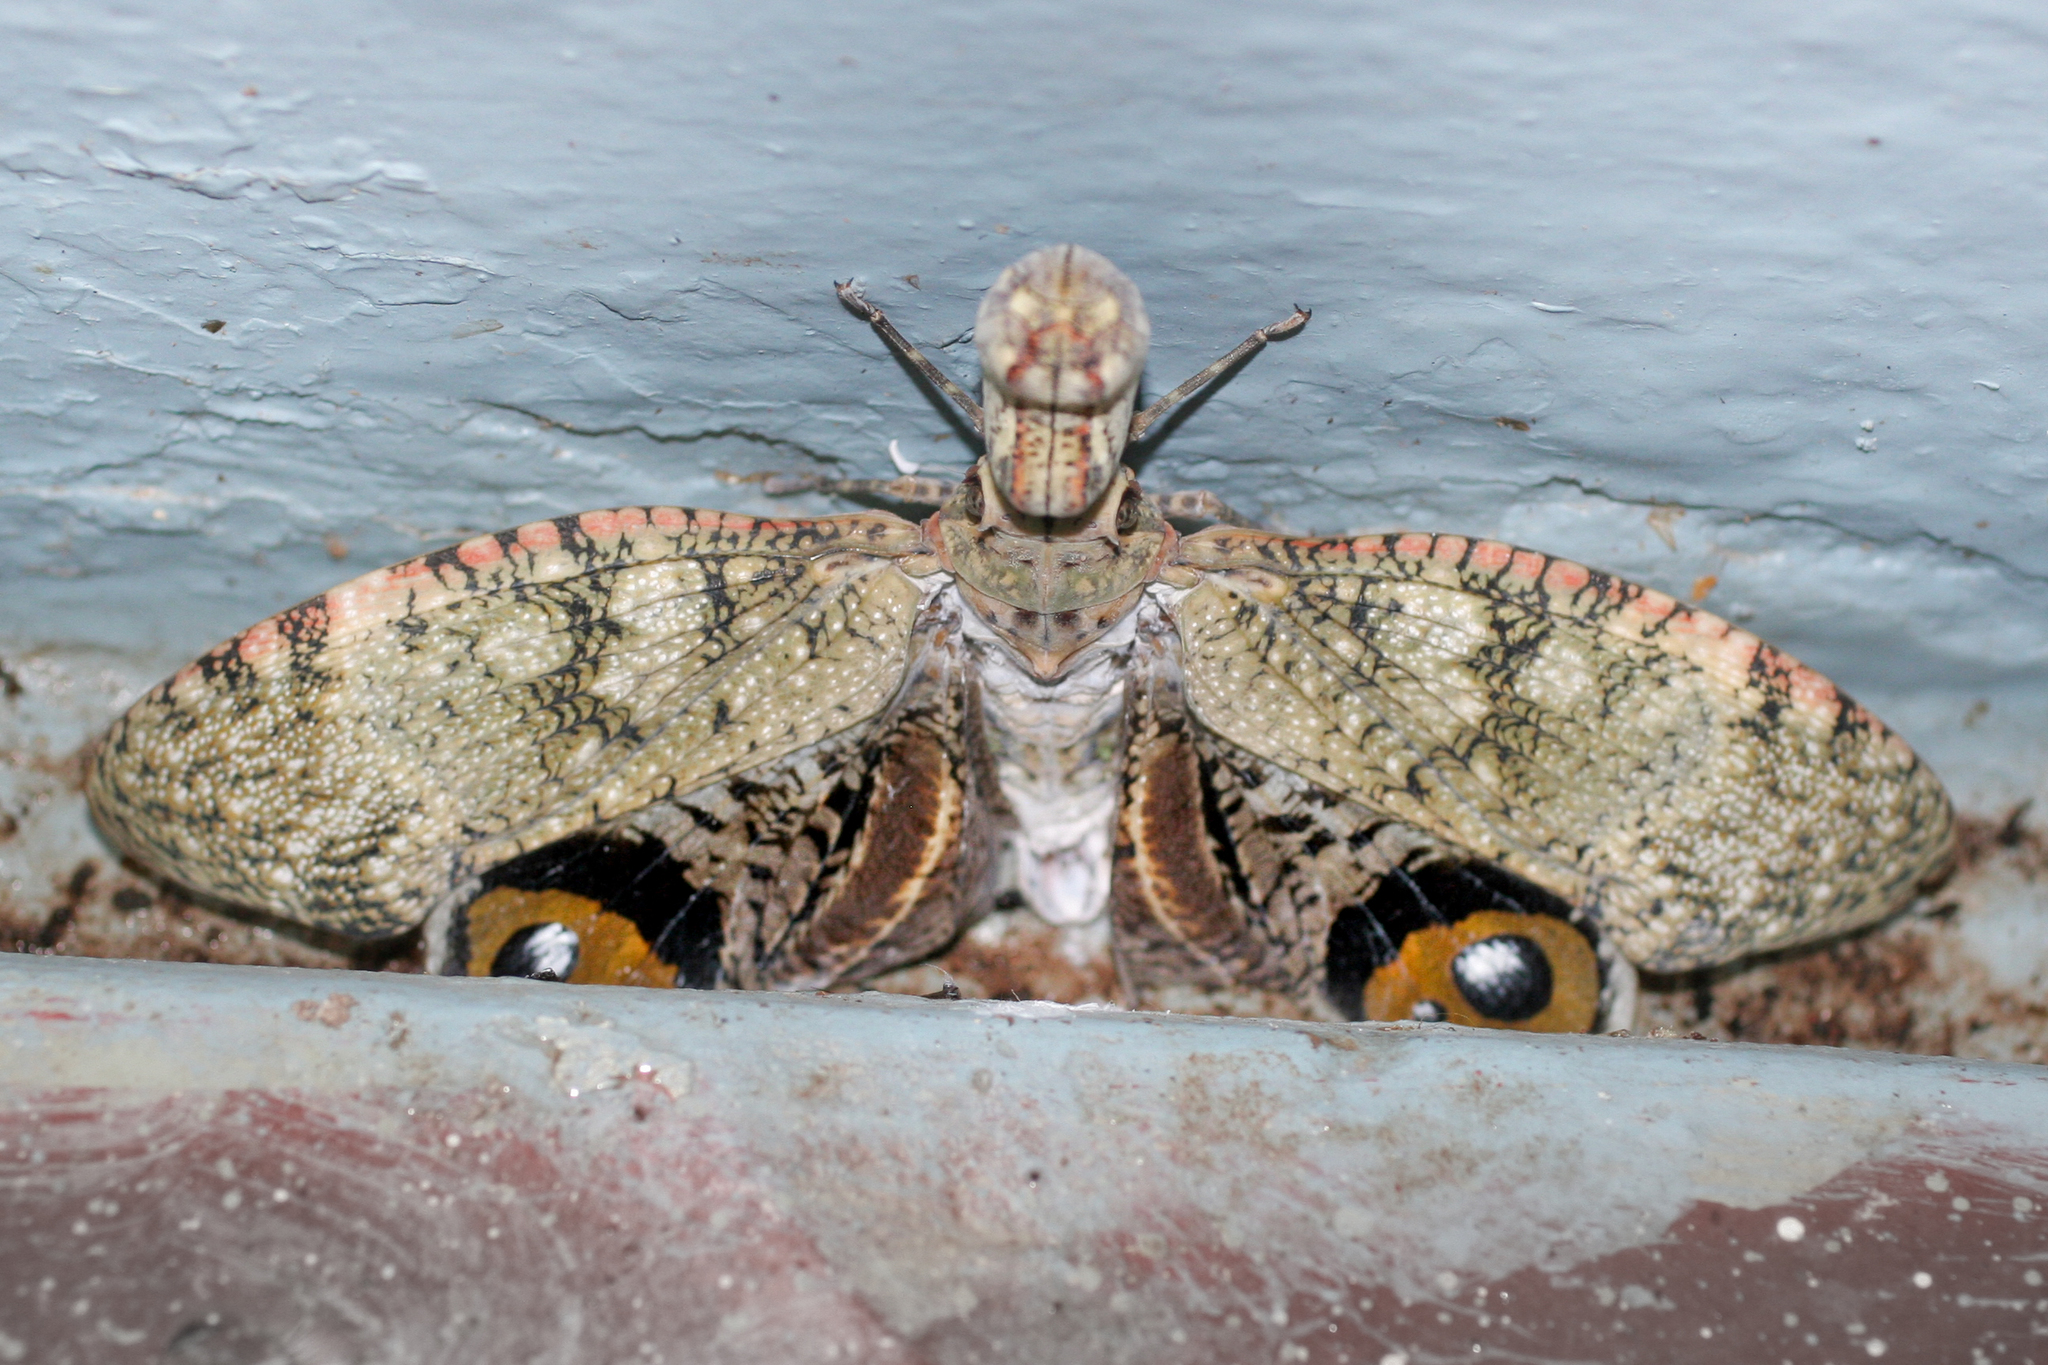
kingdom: Animalia
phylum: Arthropoda
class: Insecta
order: Hemiptera
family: Fulgoridae
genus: Fulgora
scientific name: Fulgora laternaria
